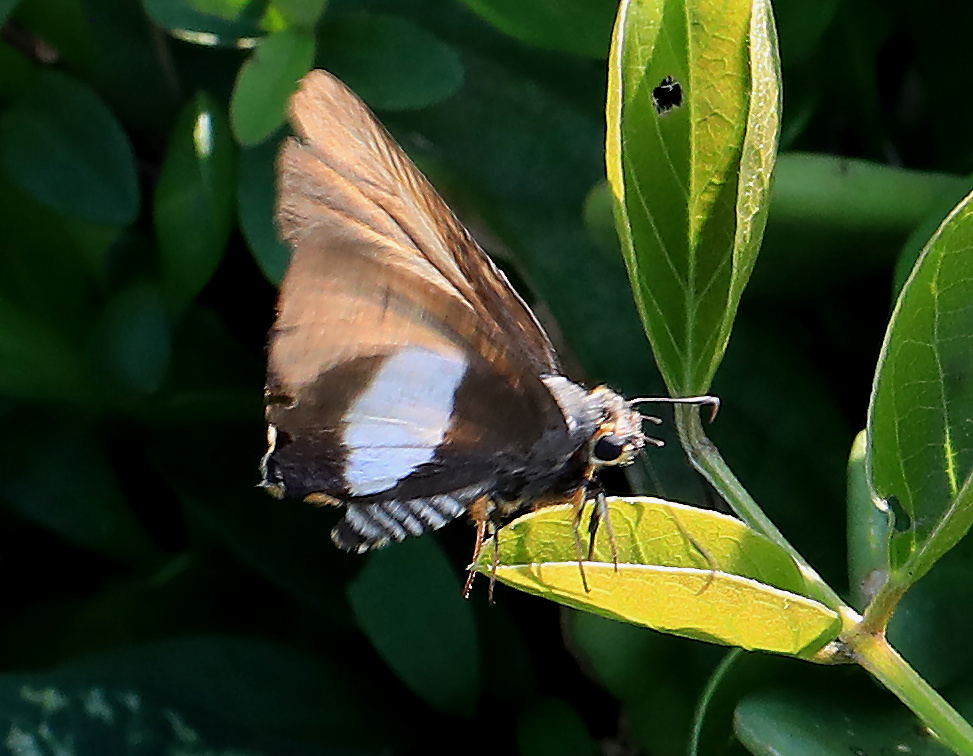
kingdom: Animalia
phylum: Arthropoda
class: Insecta
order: Lepidoptera
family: Hesperiidae
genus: Coeliades
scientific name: Coeliades forestan
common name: Striped policeman
